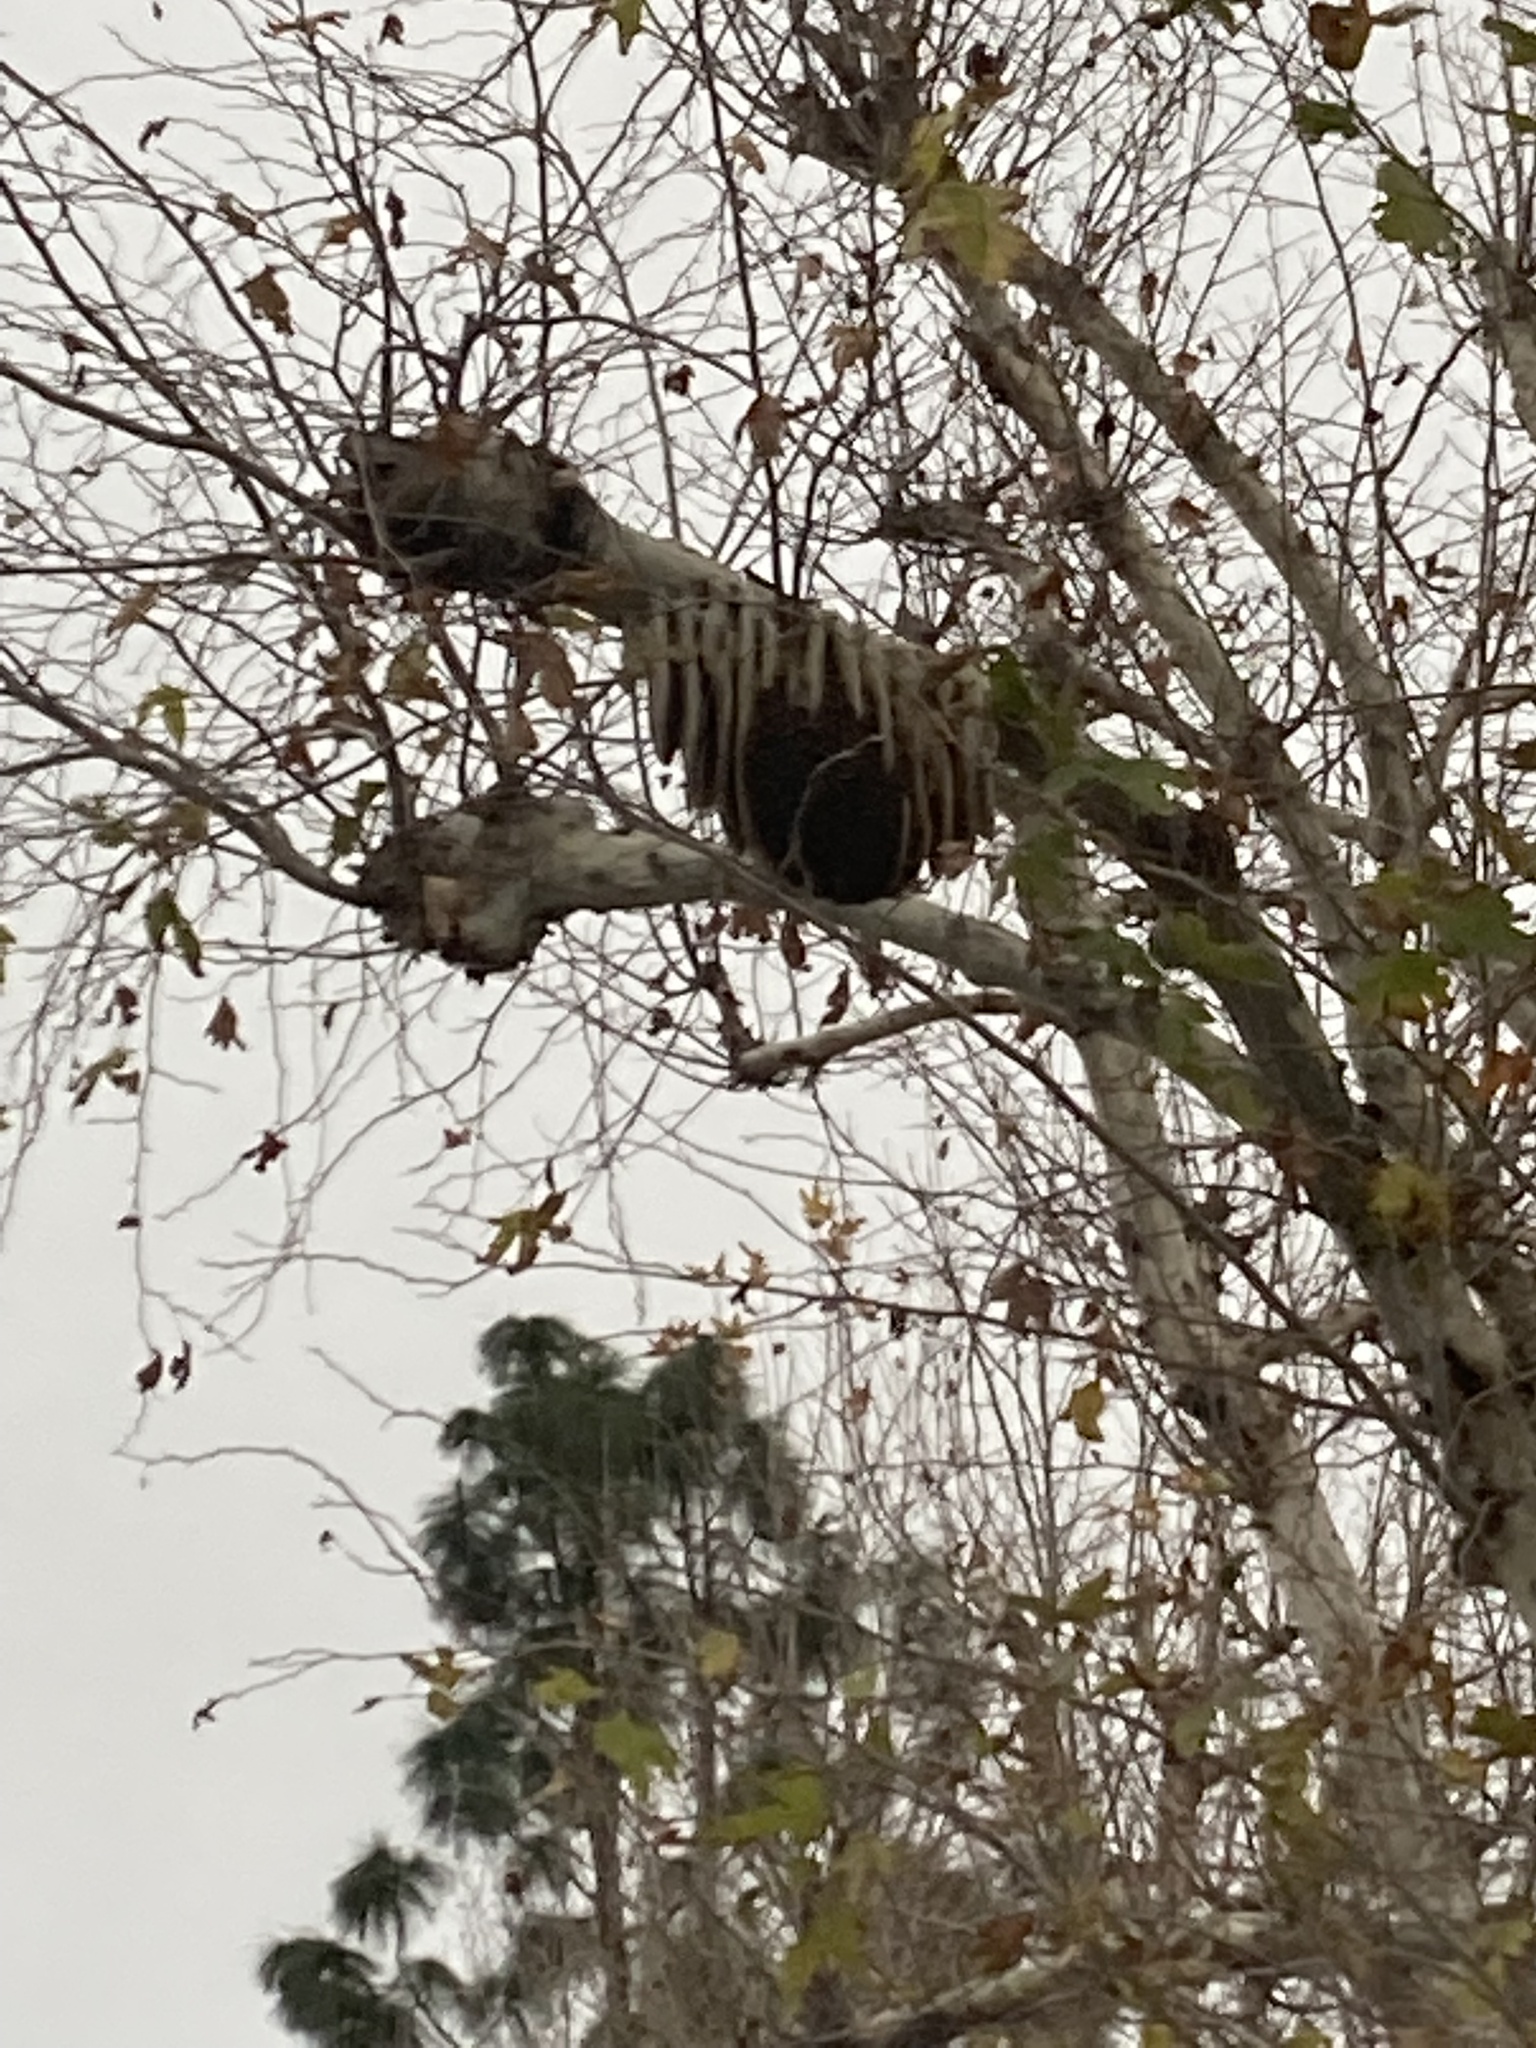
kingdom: Animalia
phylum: Arthropoda
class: Insecta
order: Hymenoptera
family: Apidae
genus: Apis
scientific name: Apis mellifera
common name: Honey bee
